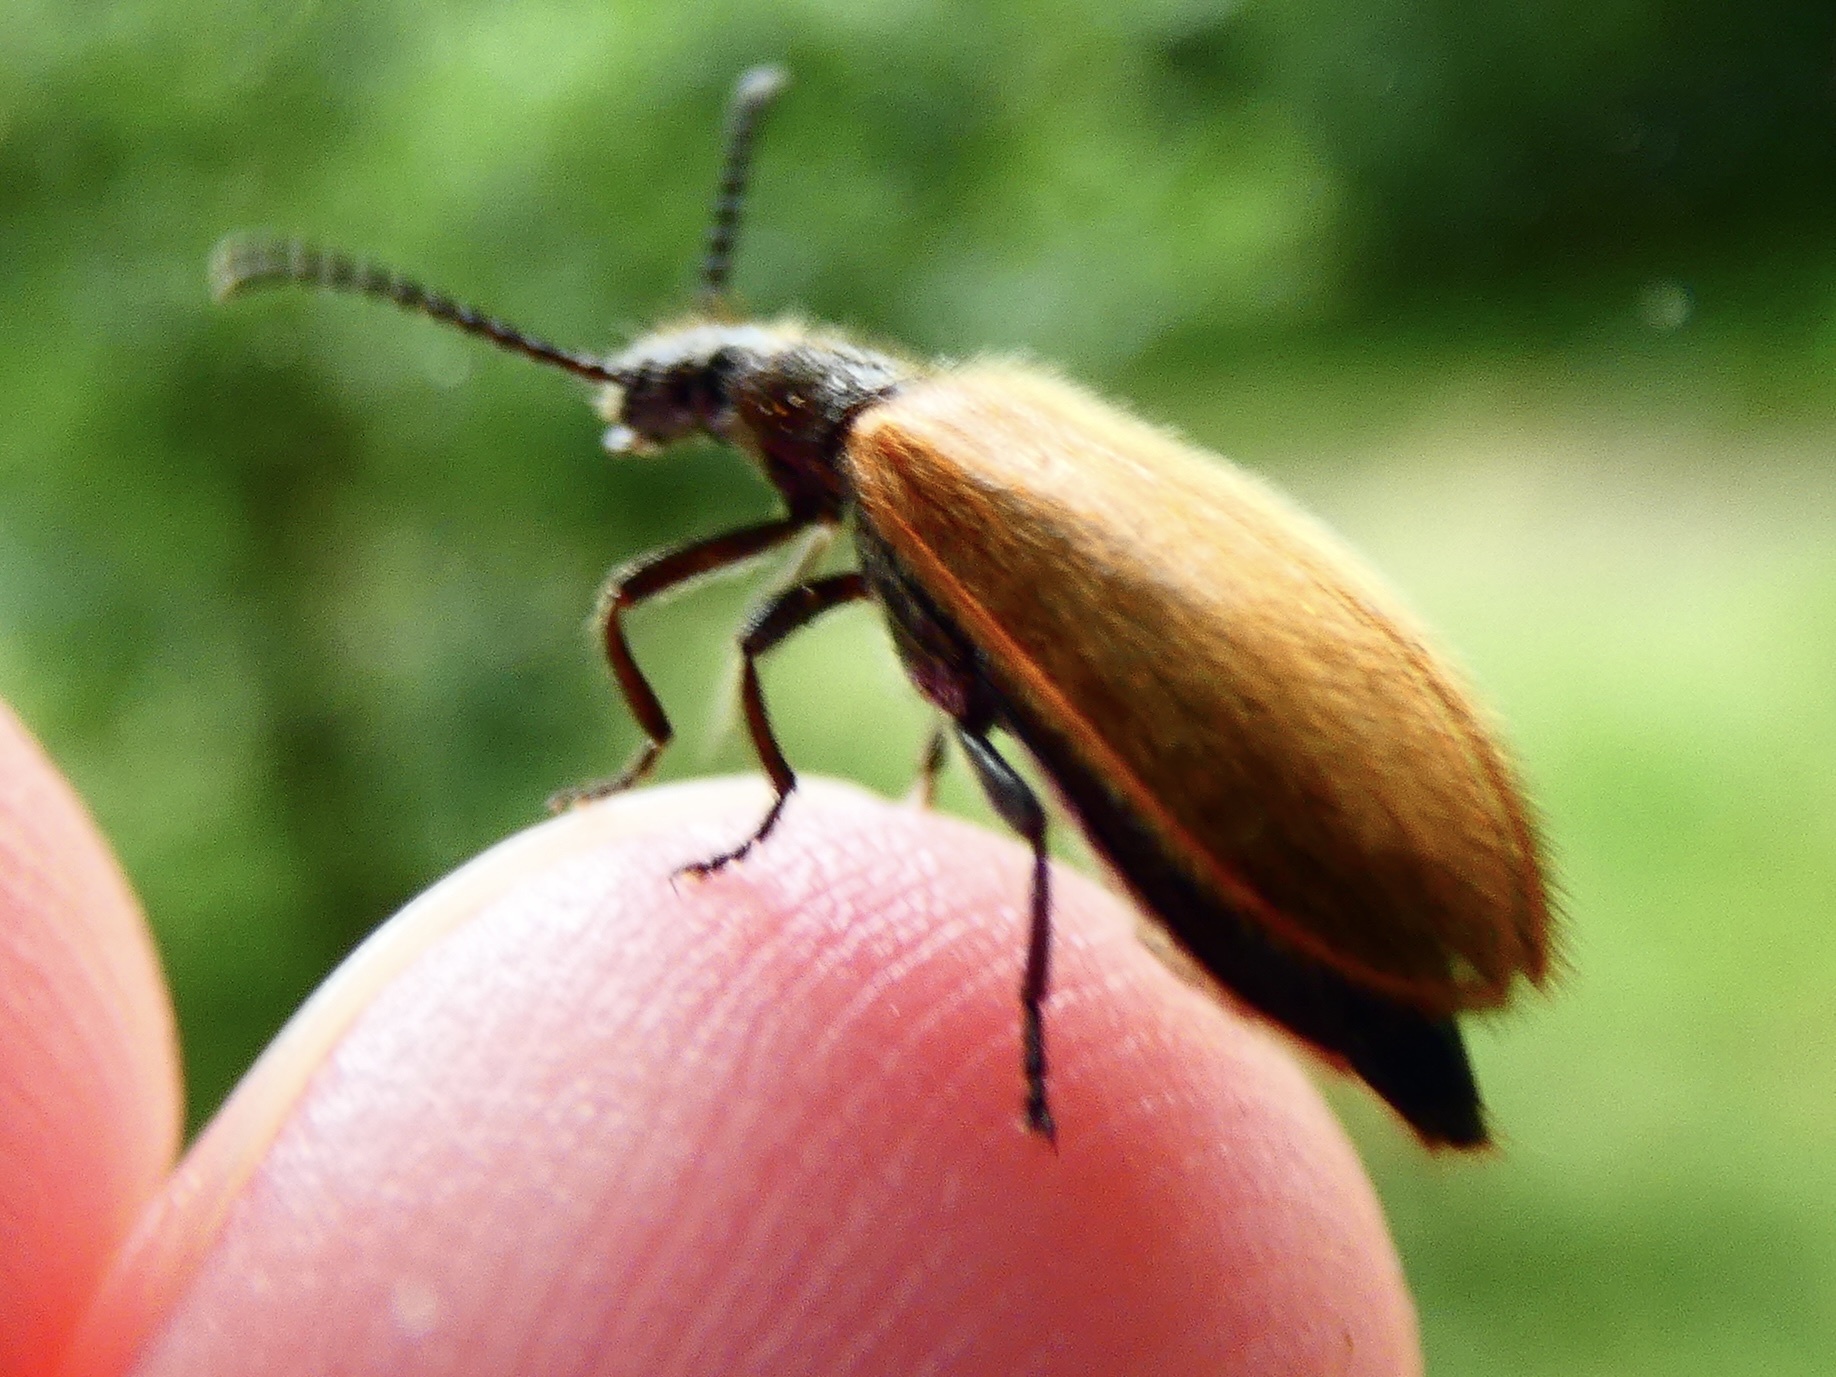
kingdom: Animalia
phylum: Arthropoda
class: Insecta
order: Coleoptera
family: Tenebrionidae
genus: Lagria
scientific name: Lagria hirta
